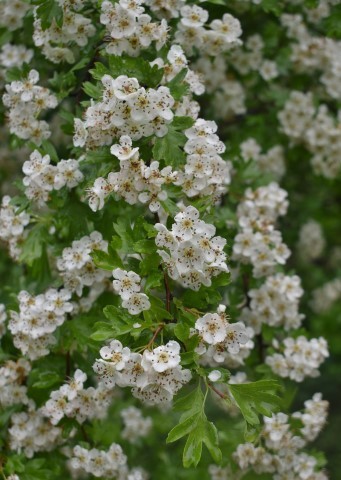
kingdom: Plantae
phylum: Tracheophyta
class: Magnoliopsida
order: Rosales
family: Rosaceae
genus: Crataegus
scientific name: Crataegus monogyna
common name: Hawthorn
